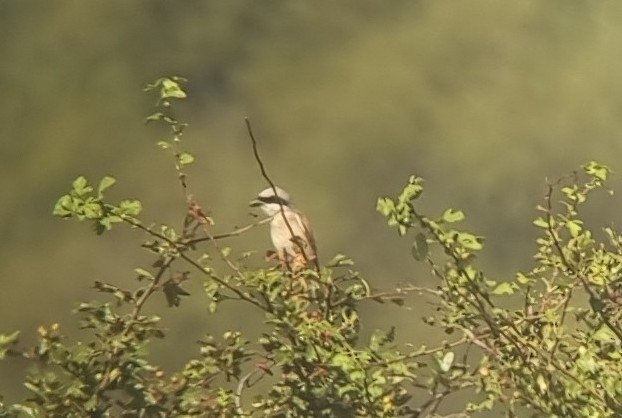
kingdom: Animalia
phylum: Chordata
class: Aves
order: Passeriformes
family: Laniidae
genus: Lanius
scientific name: Lanius collurio
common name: Red-backed shrike
